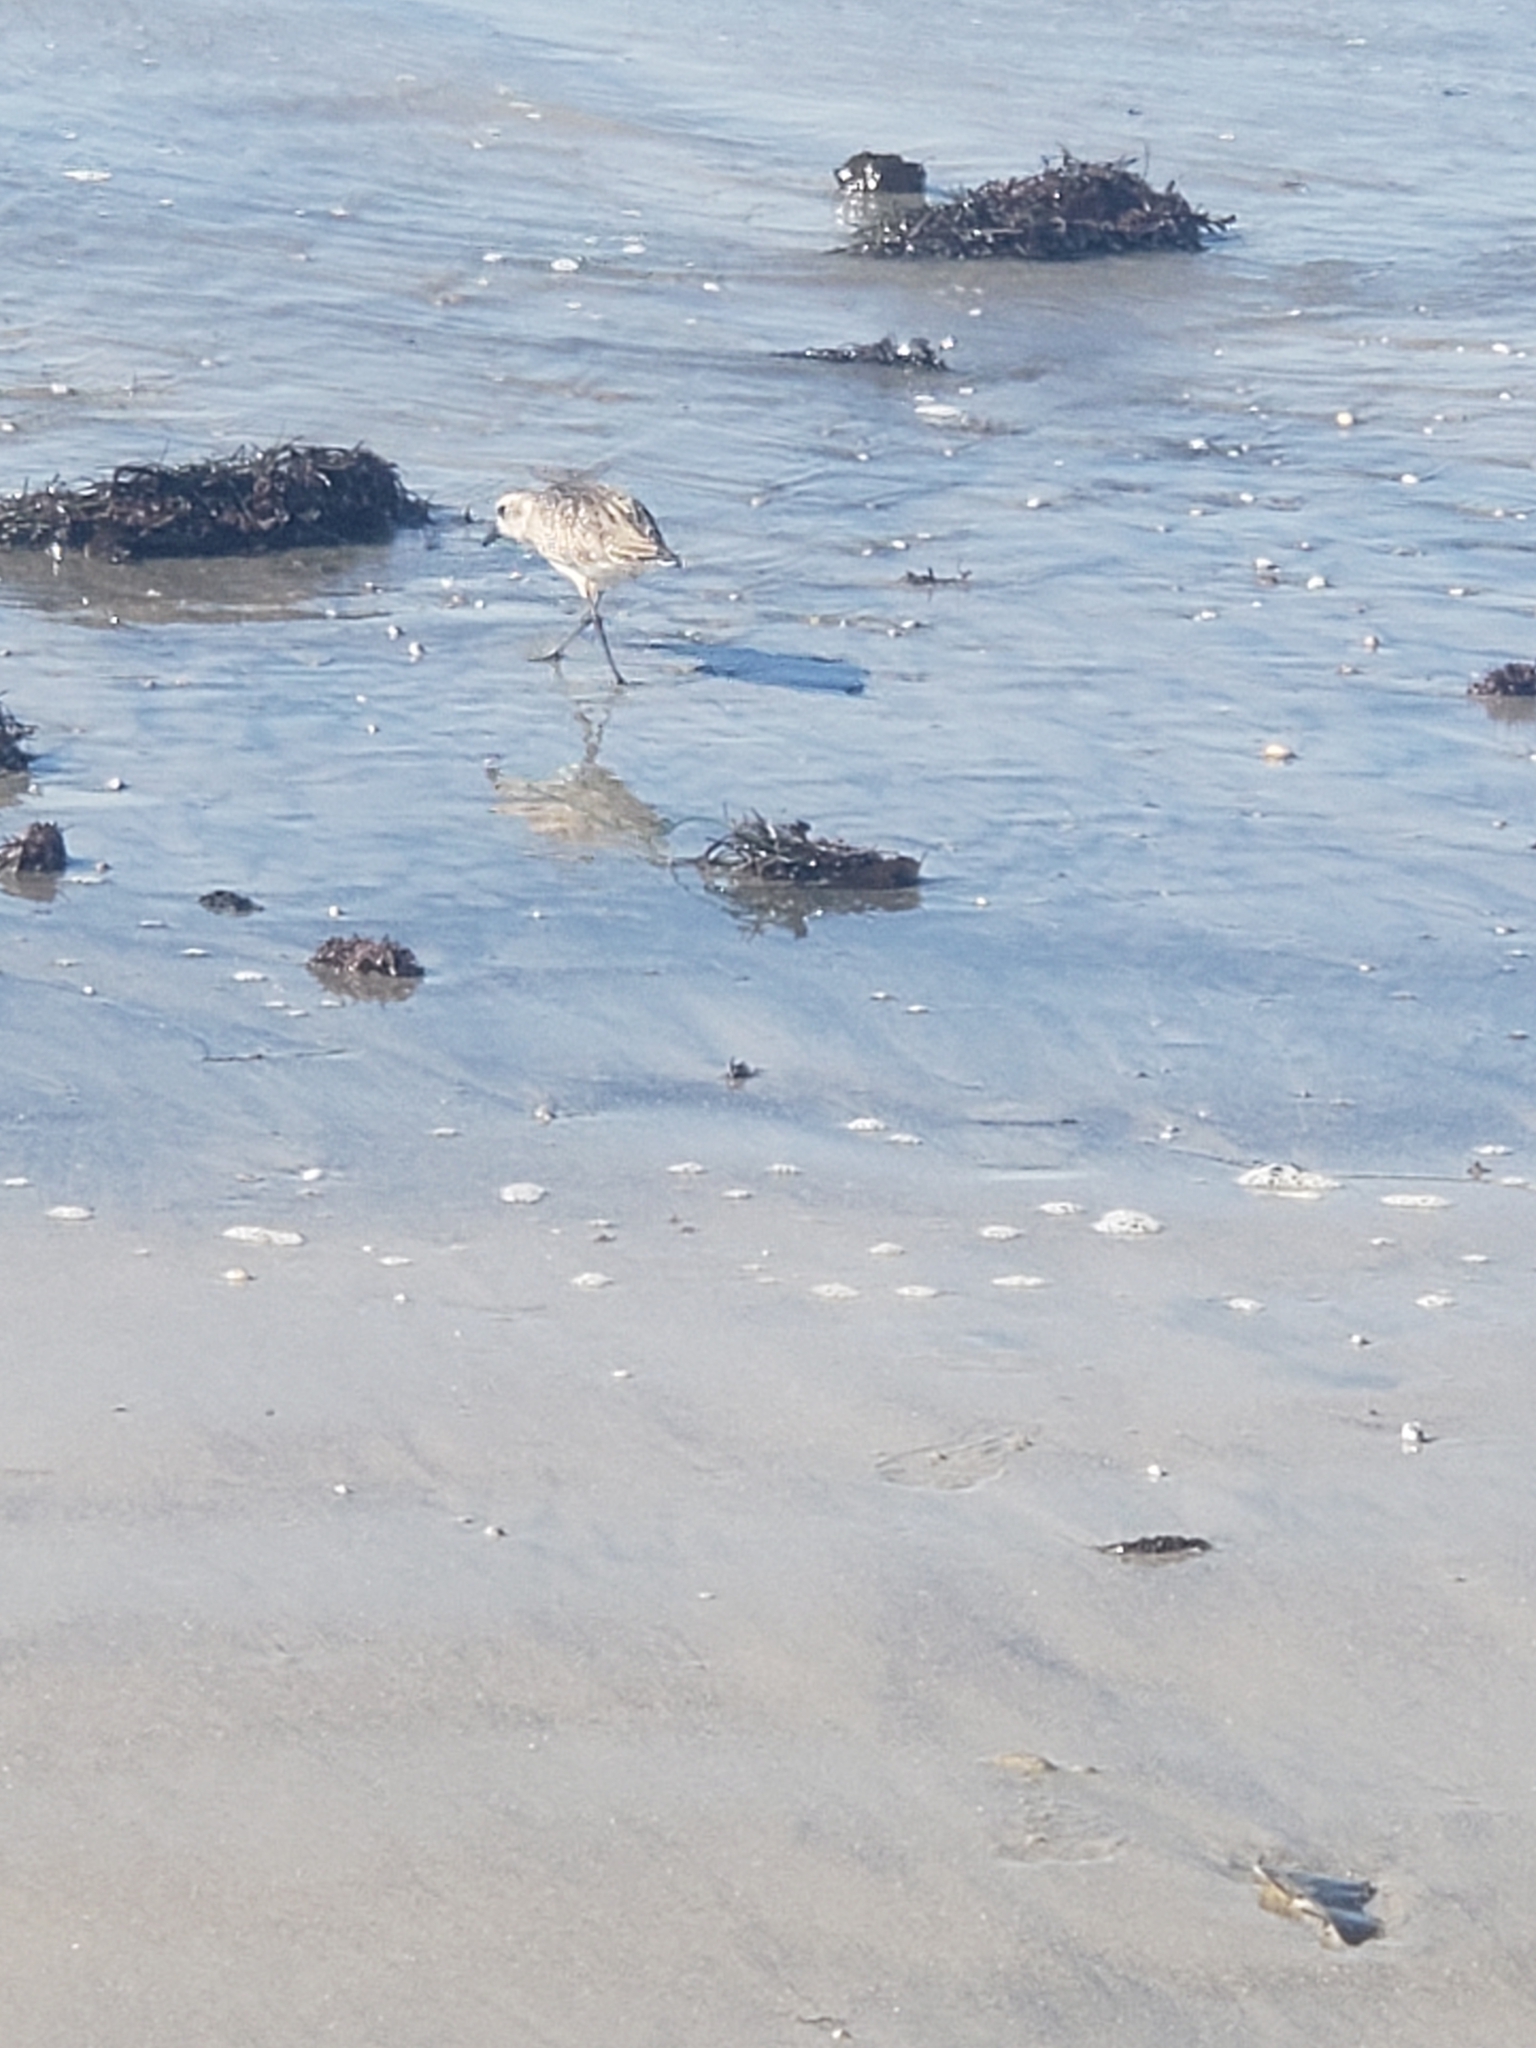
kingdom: Animalia
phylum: Chordata
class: Aves
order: Charadriiformes
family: Charadriidae
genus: Pluvialis
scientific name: Pluvialis squatarola
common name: Grey plover
